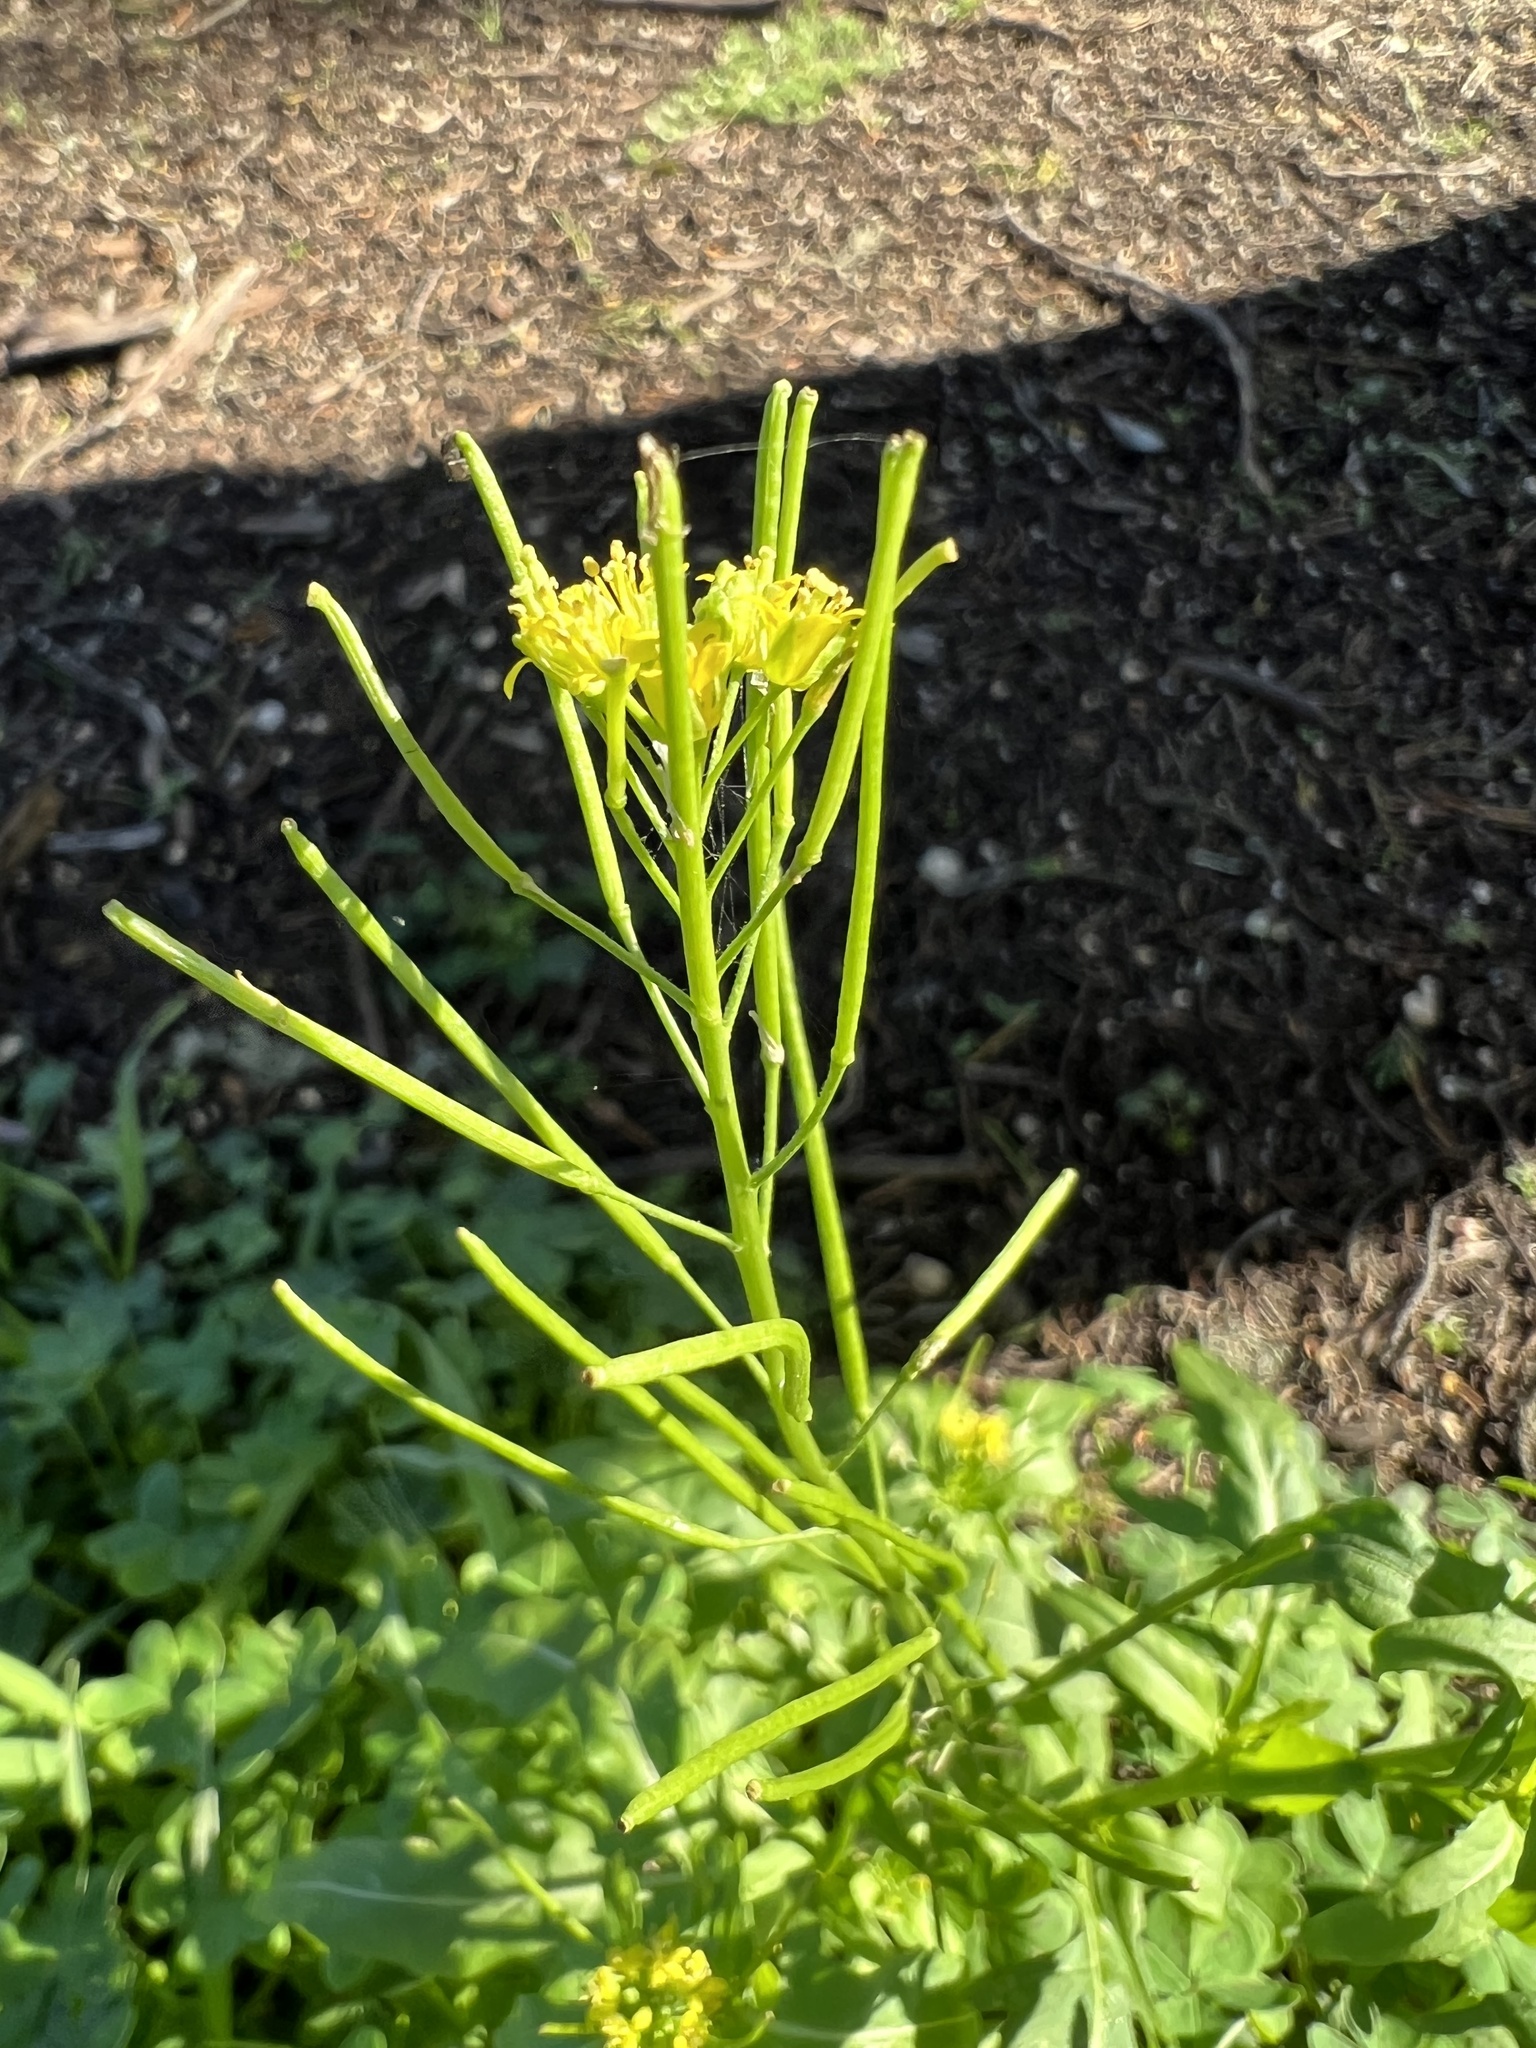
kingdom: Plantae
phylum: Tracheophyta
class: Magnoliopsida
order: Brassicales
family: Brassicaceae
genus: Sisymbrium
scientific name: Sisymbrium irio
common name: London rocket
